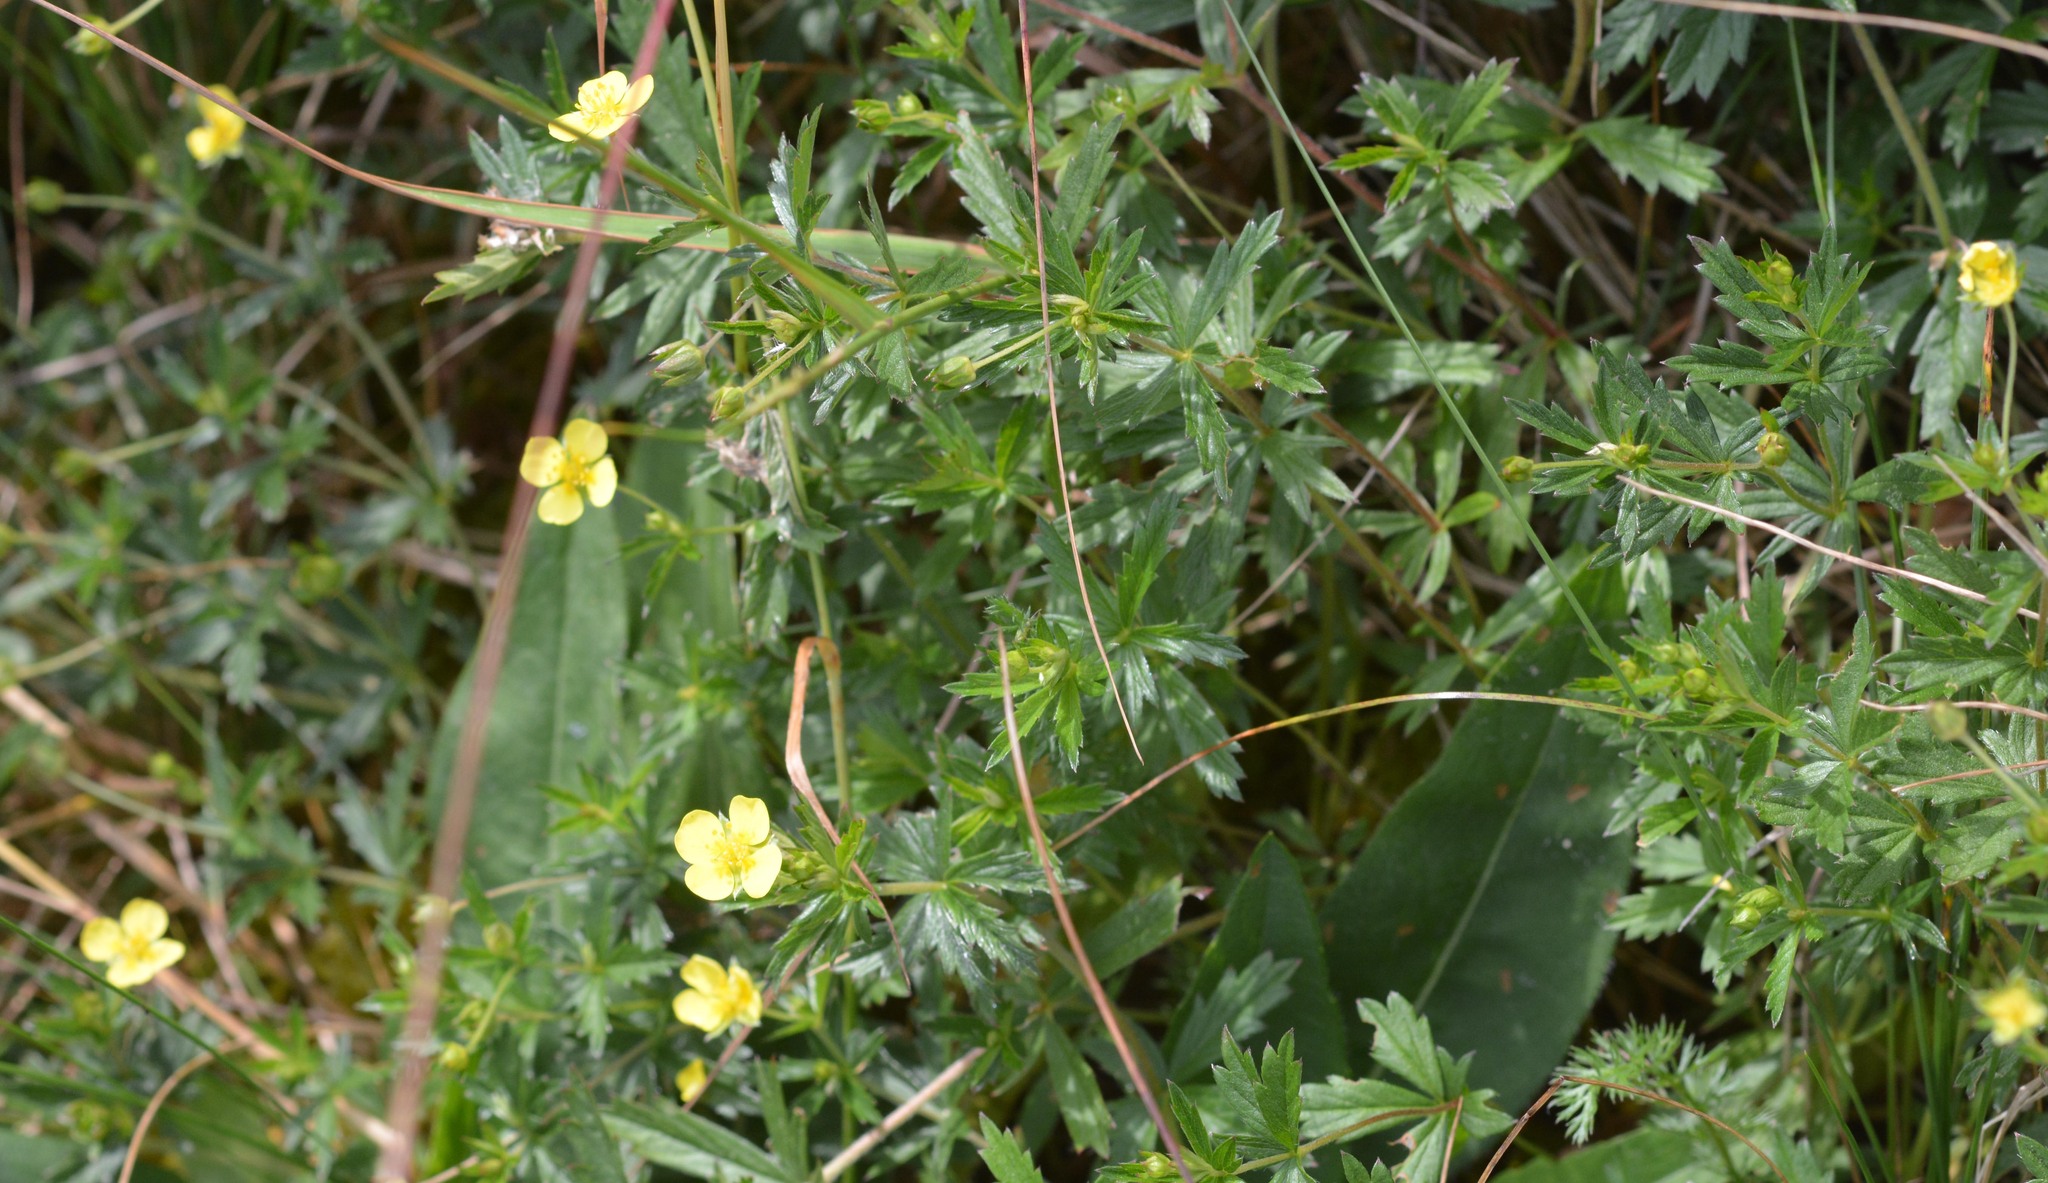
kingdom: Plantae
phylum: Tracheophyta
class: Magnoliopsida
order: Rosales
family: Rosaceae
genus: Potentilla
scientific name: Potentilla erecta
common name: Tormentil
